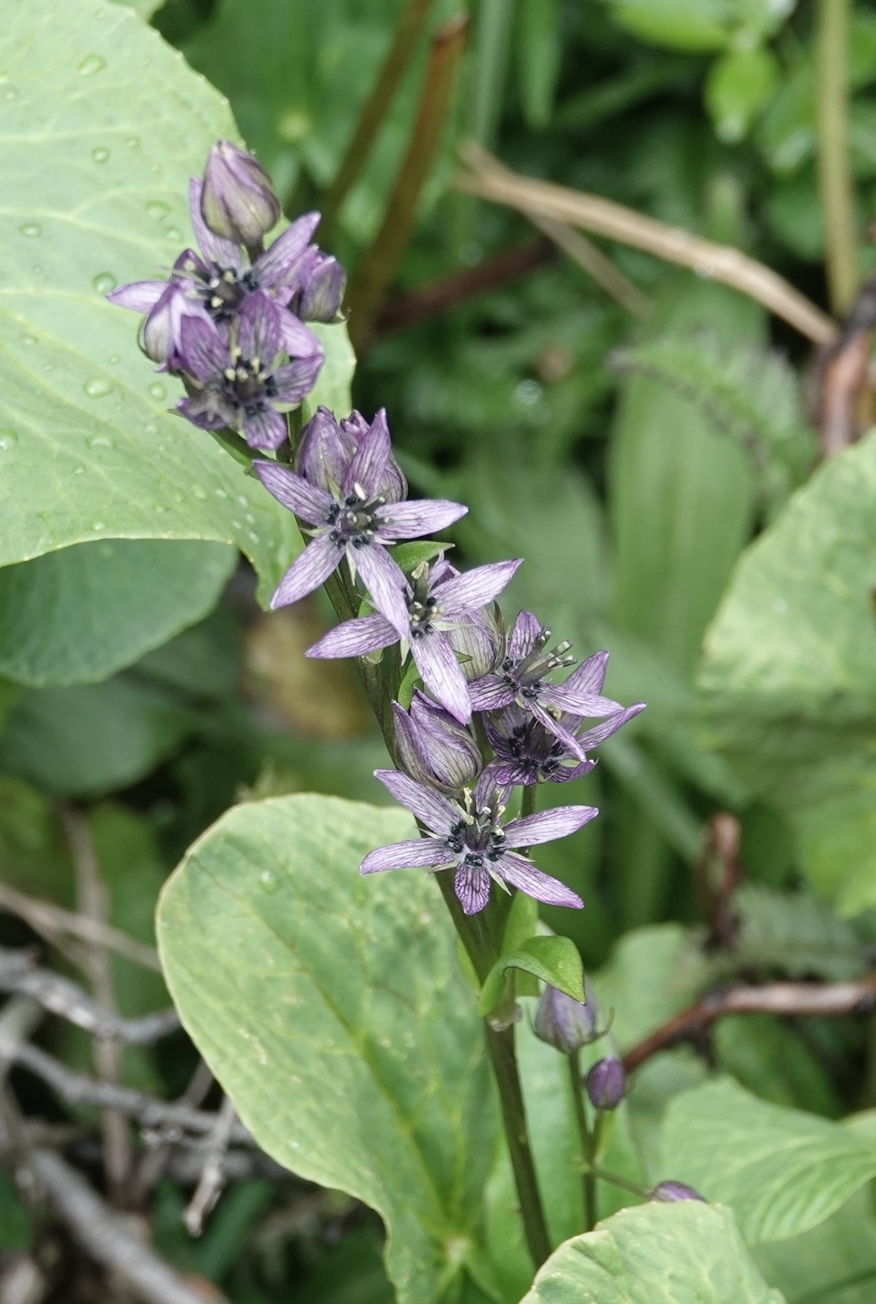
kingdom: Plantae
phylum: Tracheophyta
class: Magnoliopsida
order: Gentianales
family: Gentianaceae
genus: Swertia
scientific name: Swertia perennis
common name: Alpine bog swertia
